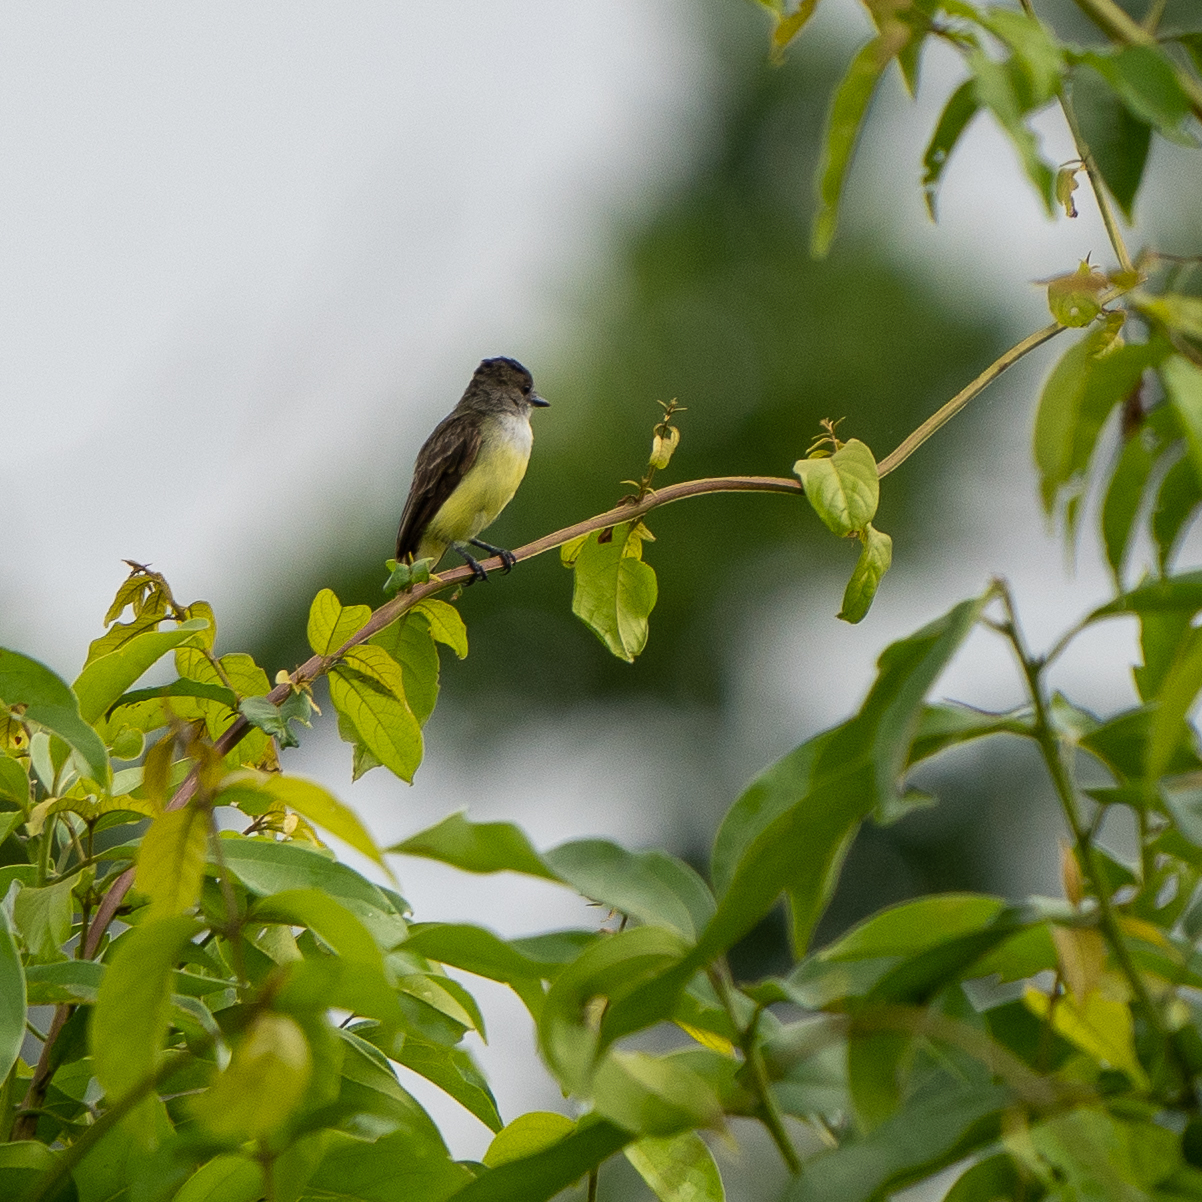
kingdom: Animalia
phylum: Chordata
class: Aves
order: Passeriformes
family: Tyrannidae
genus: Myiarchus
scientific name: Myiarchus tuberculifer
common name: Dusky-capped flycatcher
